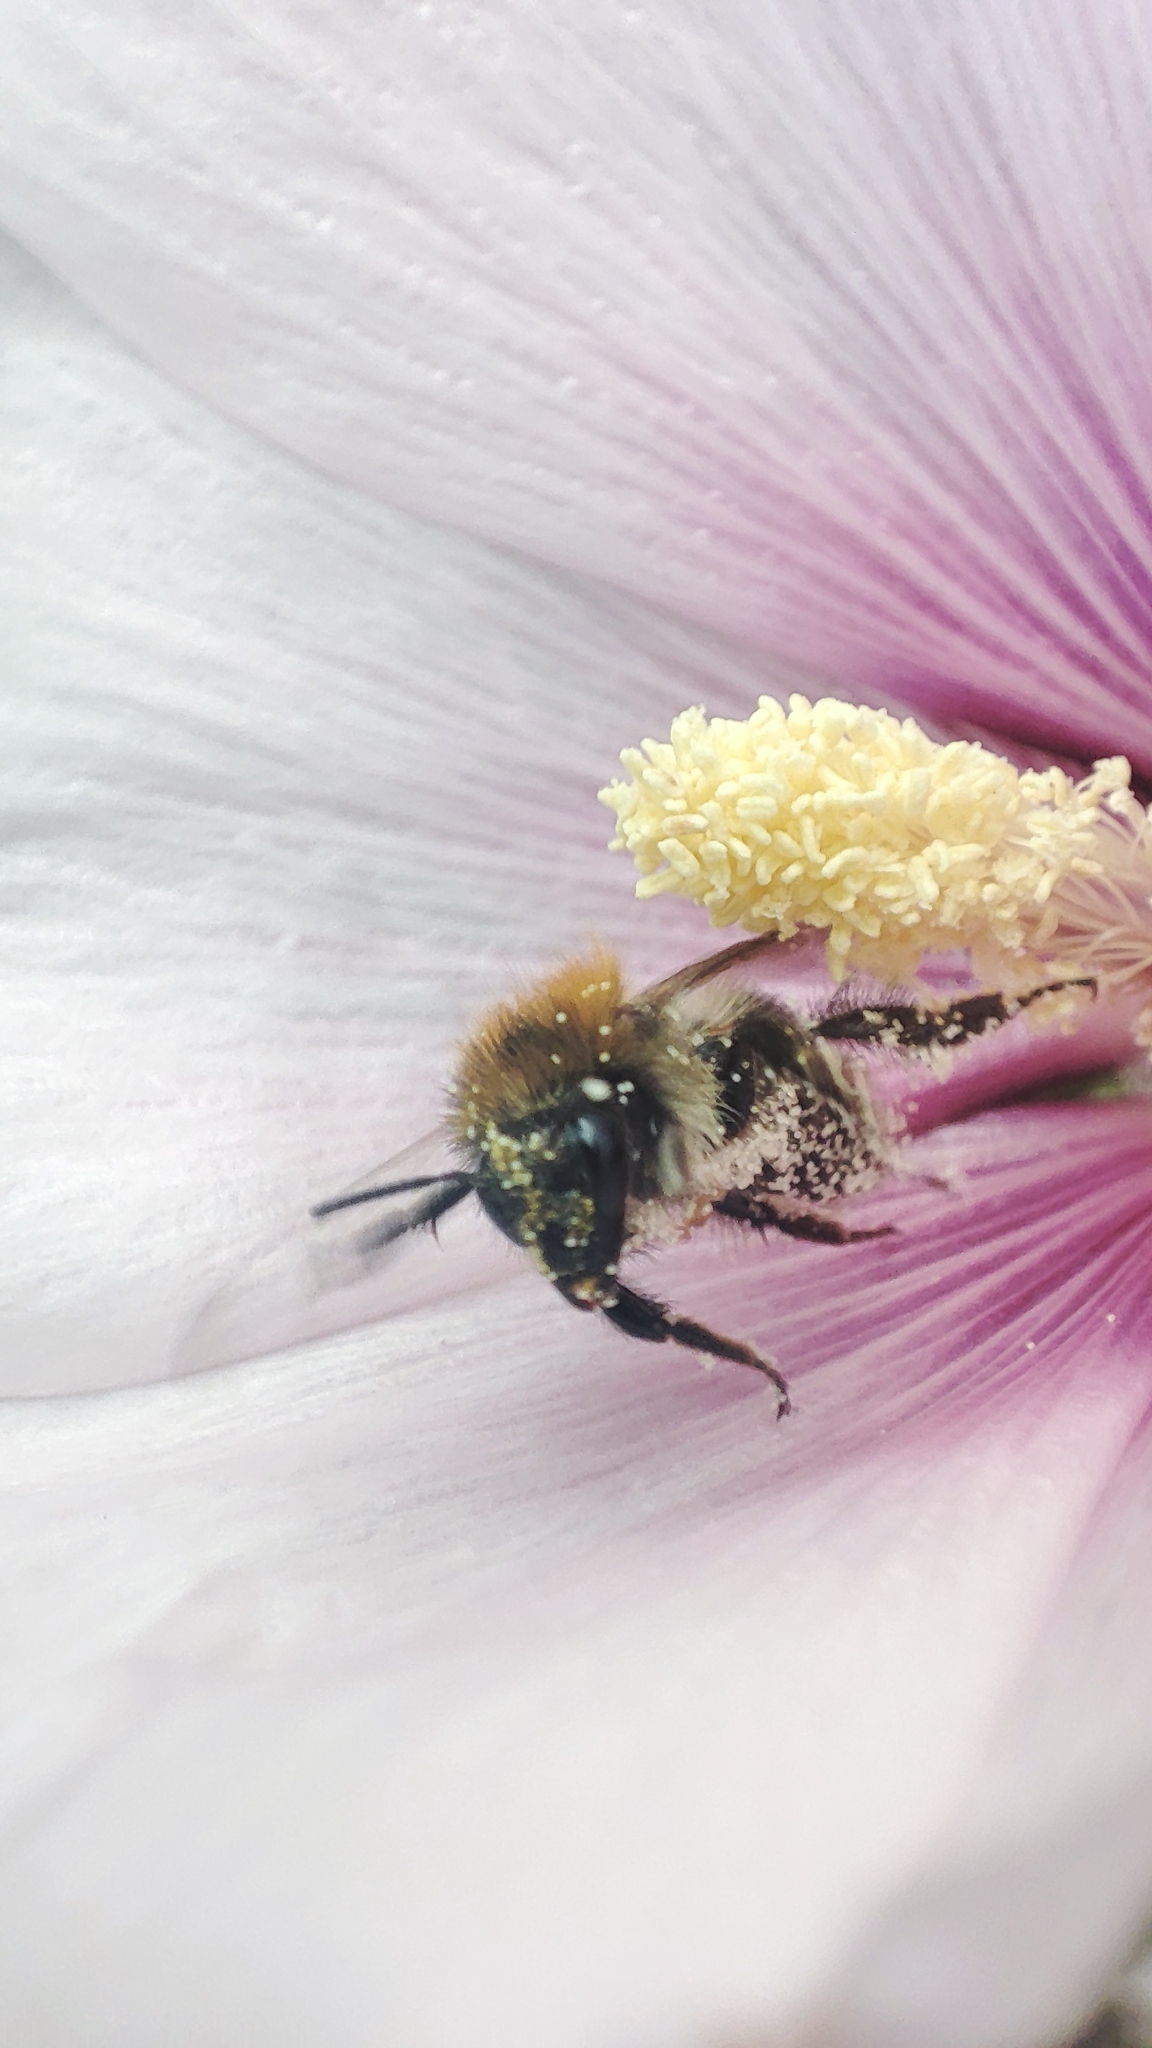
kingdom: Animalia
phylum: Arthropoda
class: Insecta
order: Hymenoptera
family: Apidae
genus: Bombus
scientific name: Bombus pascuorum
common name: Common carder bee
